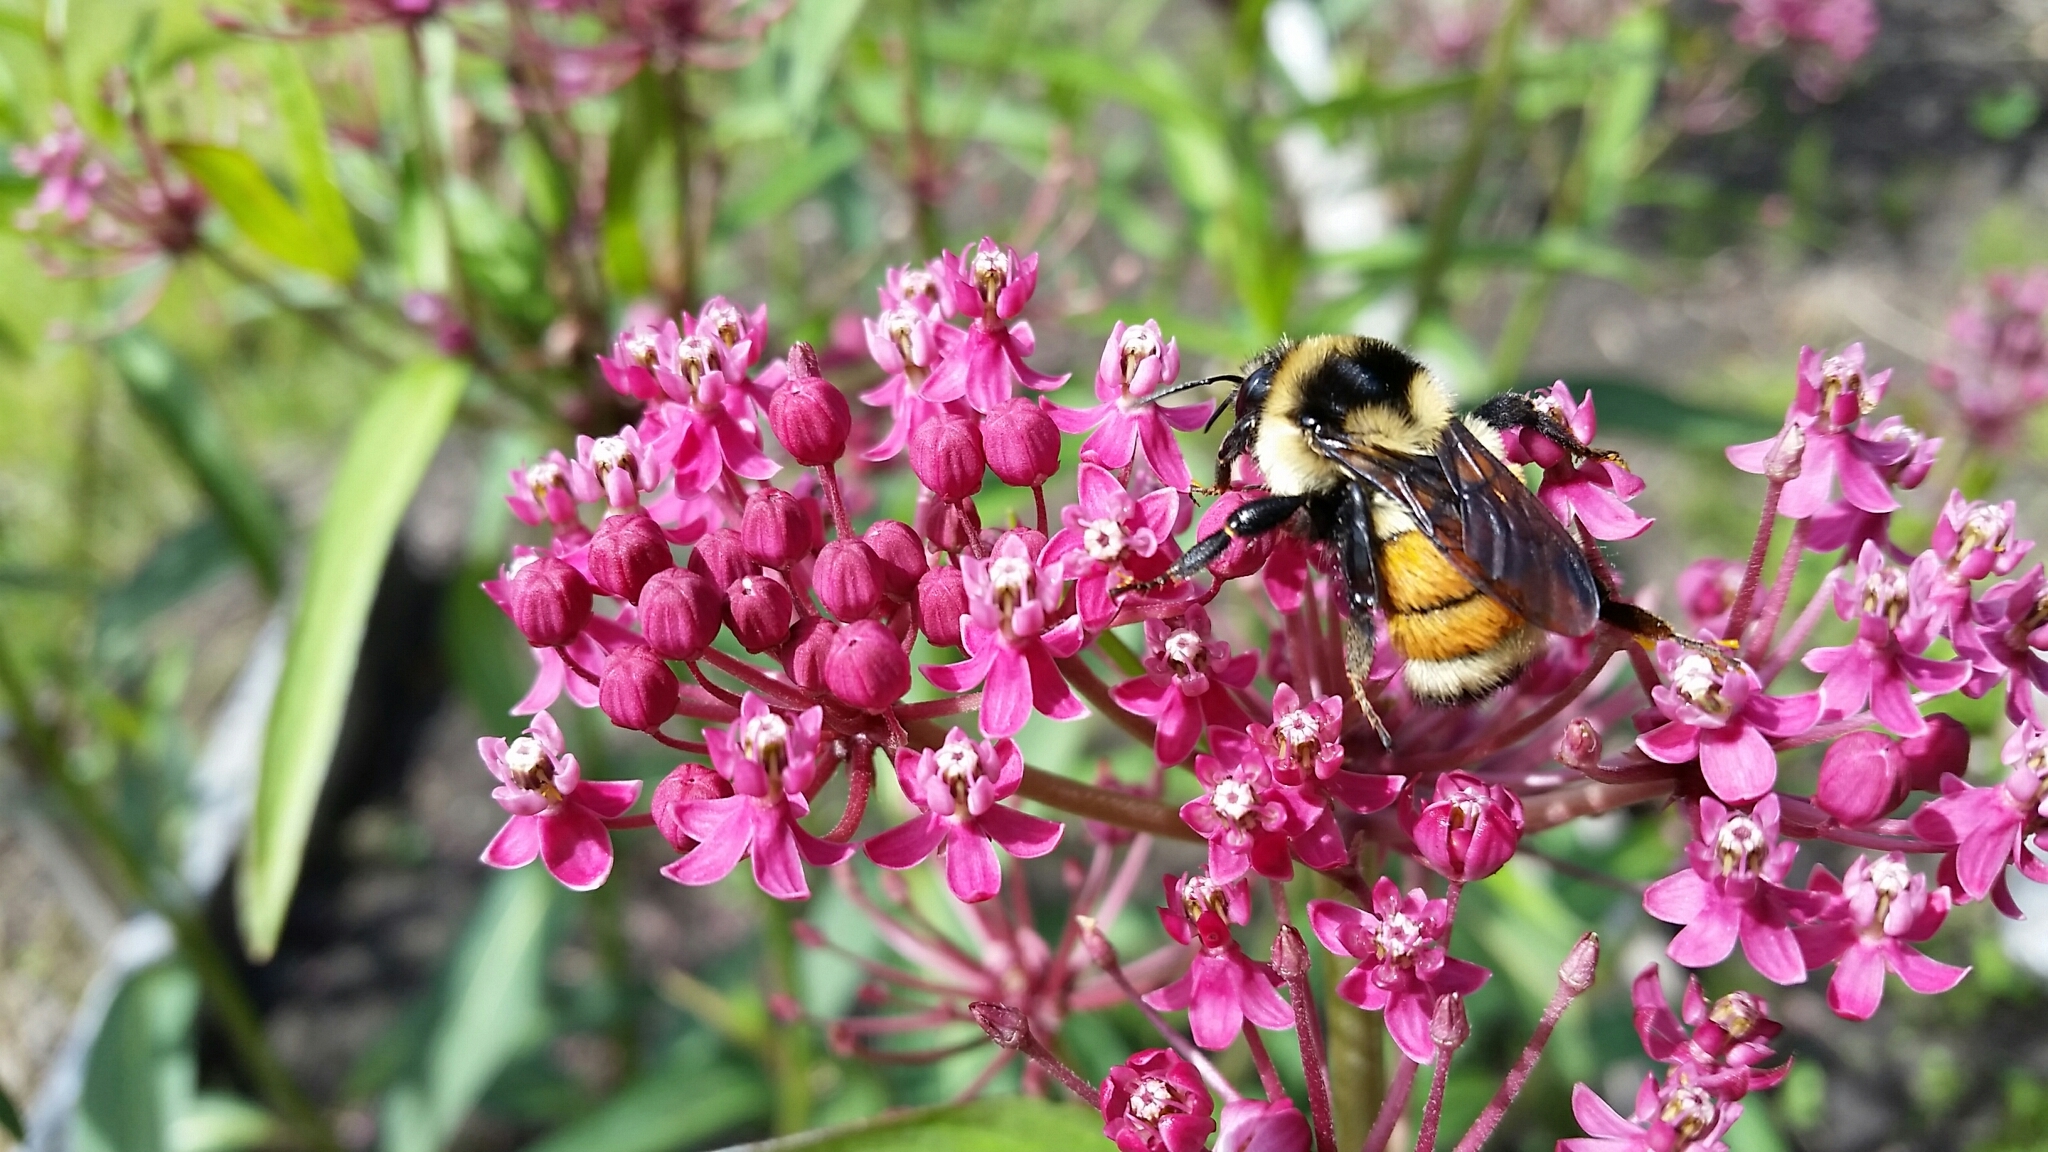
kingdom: Animalia
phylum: Arthropoda
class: Insecta
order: Hymenoptera
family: Apidae
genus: Bombus
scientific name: Bombus ternarius
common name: Tri-colored bumble bee
